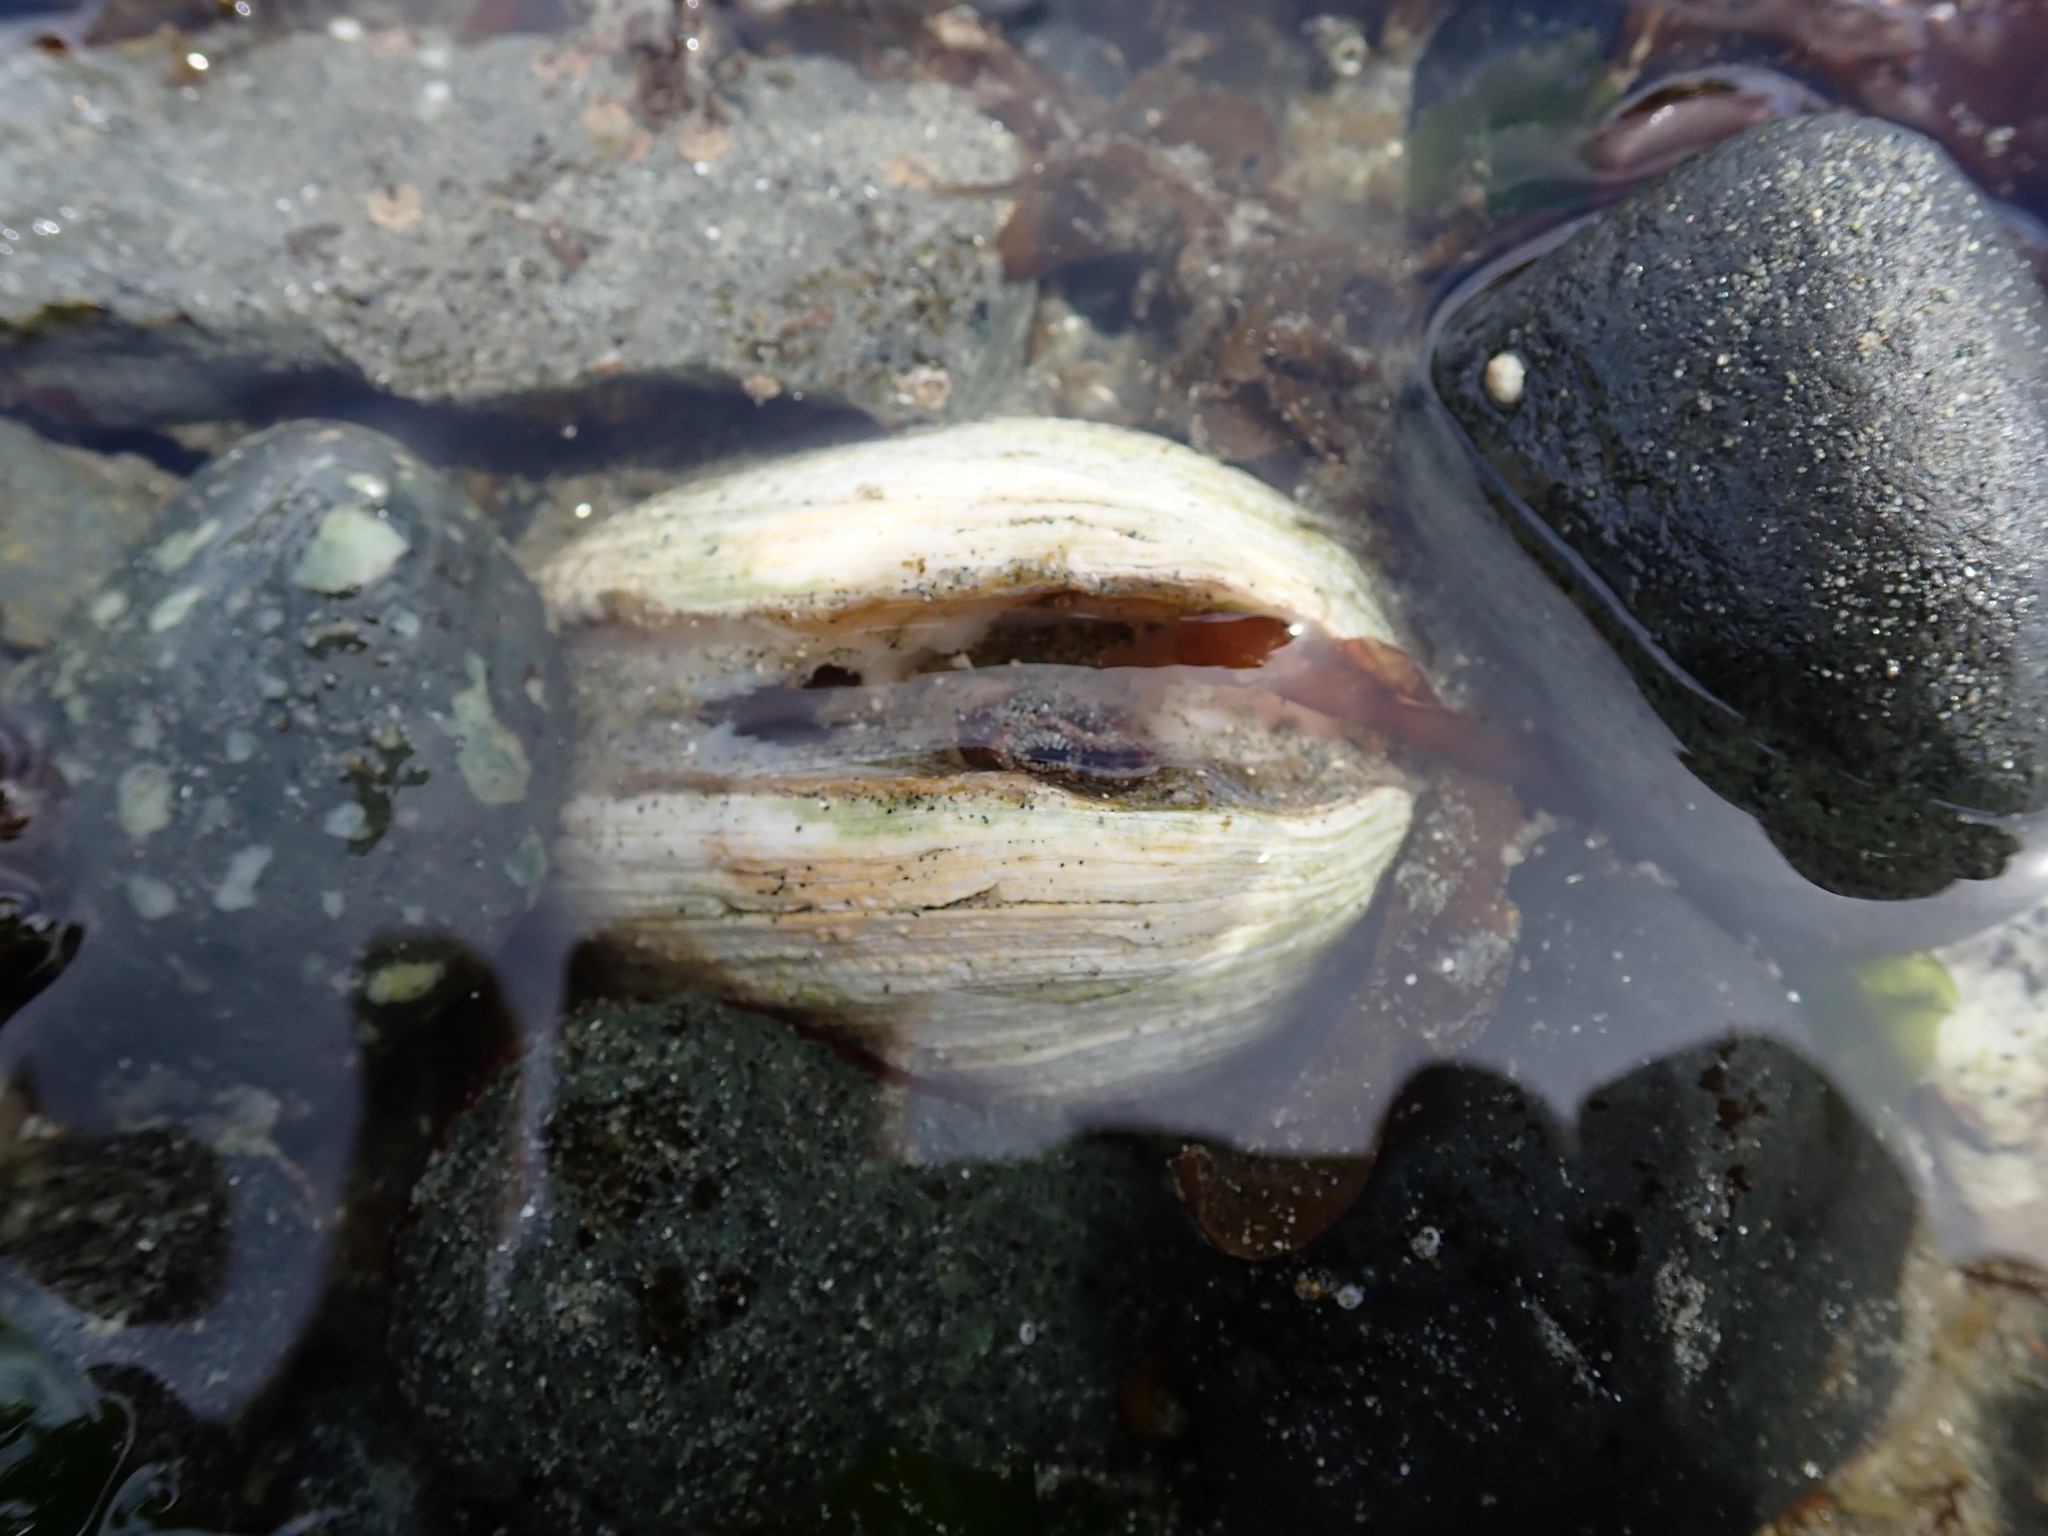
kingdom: Animalia
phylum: Mollusca
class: Bivalvia
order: Venerida
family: Veneridae
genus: Saxidomus
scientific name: Saxidomus gigantea
